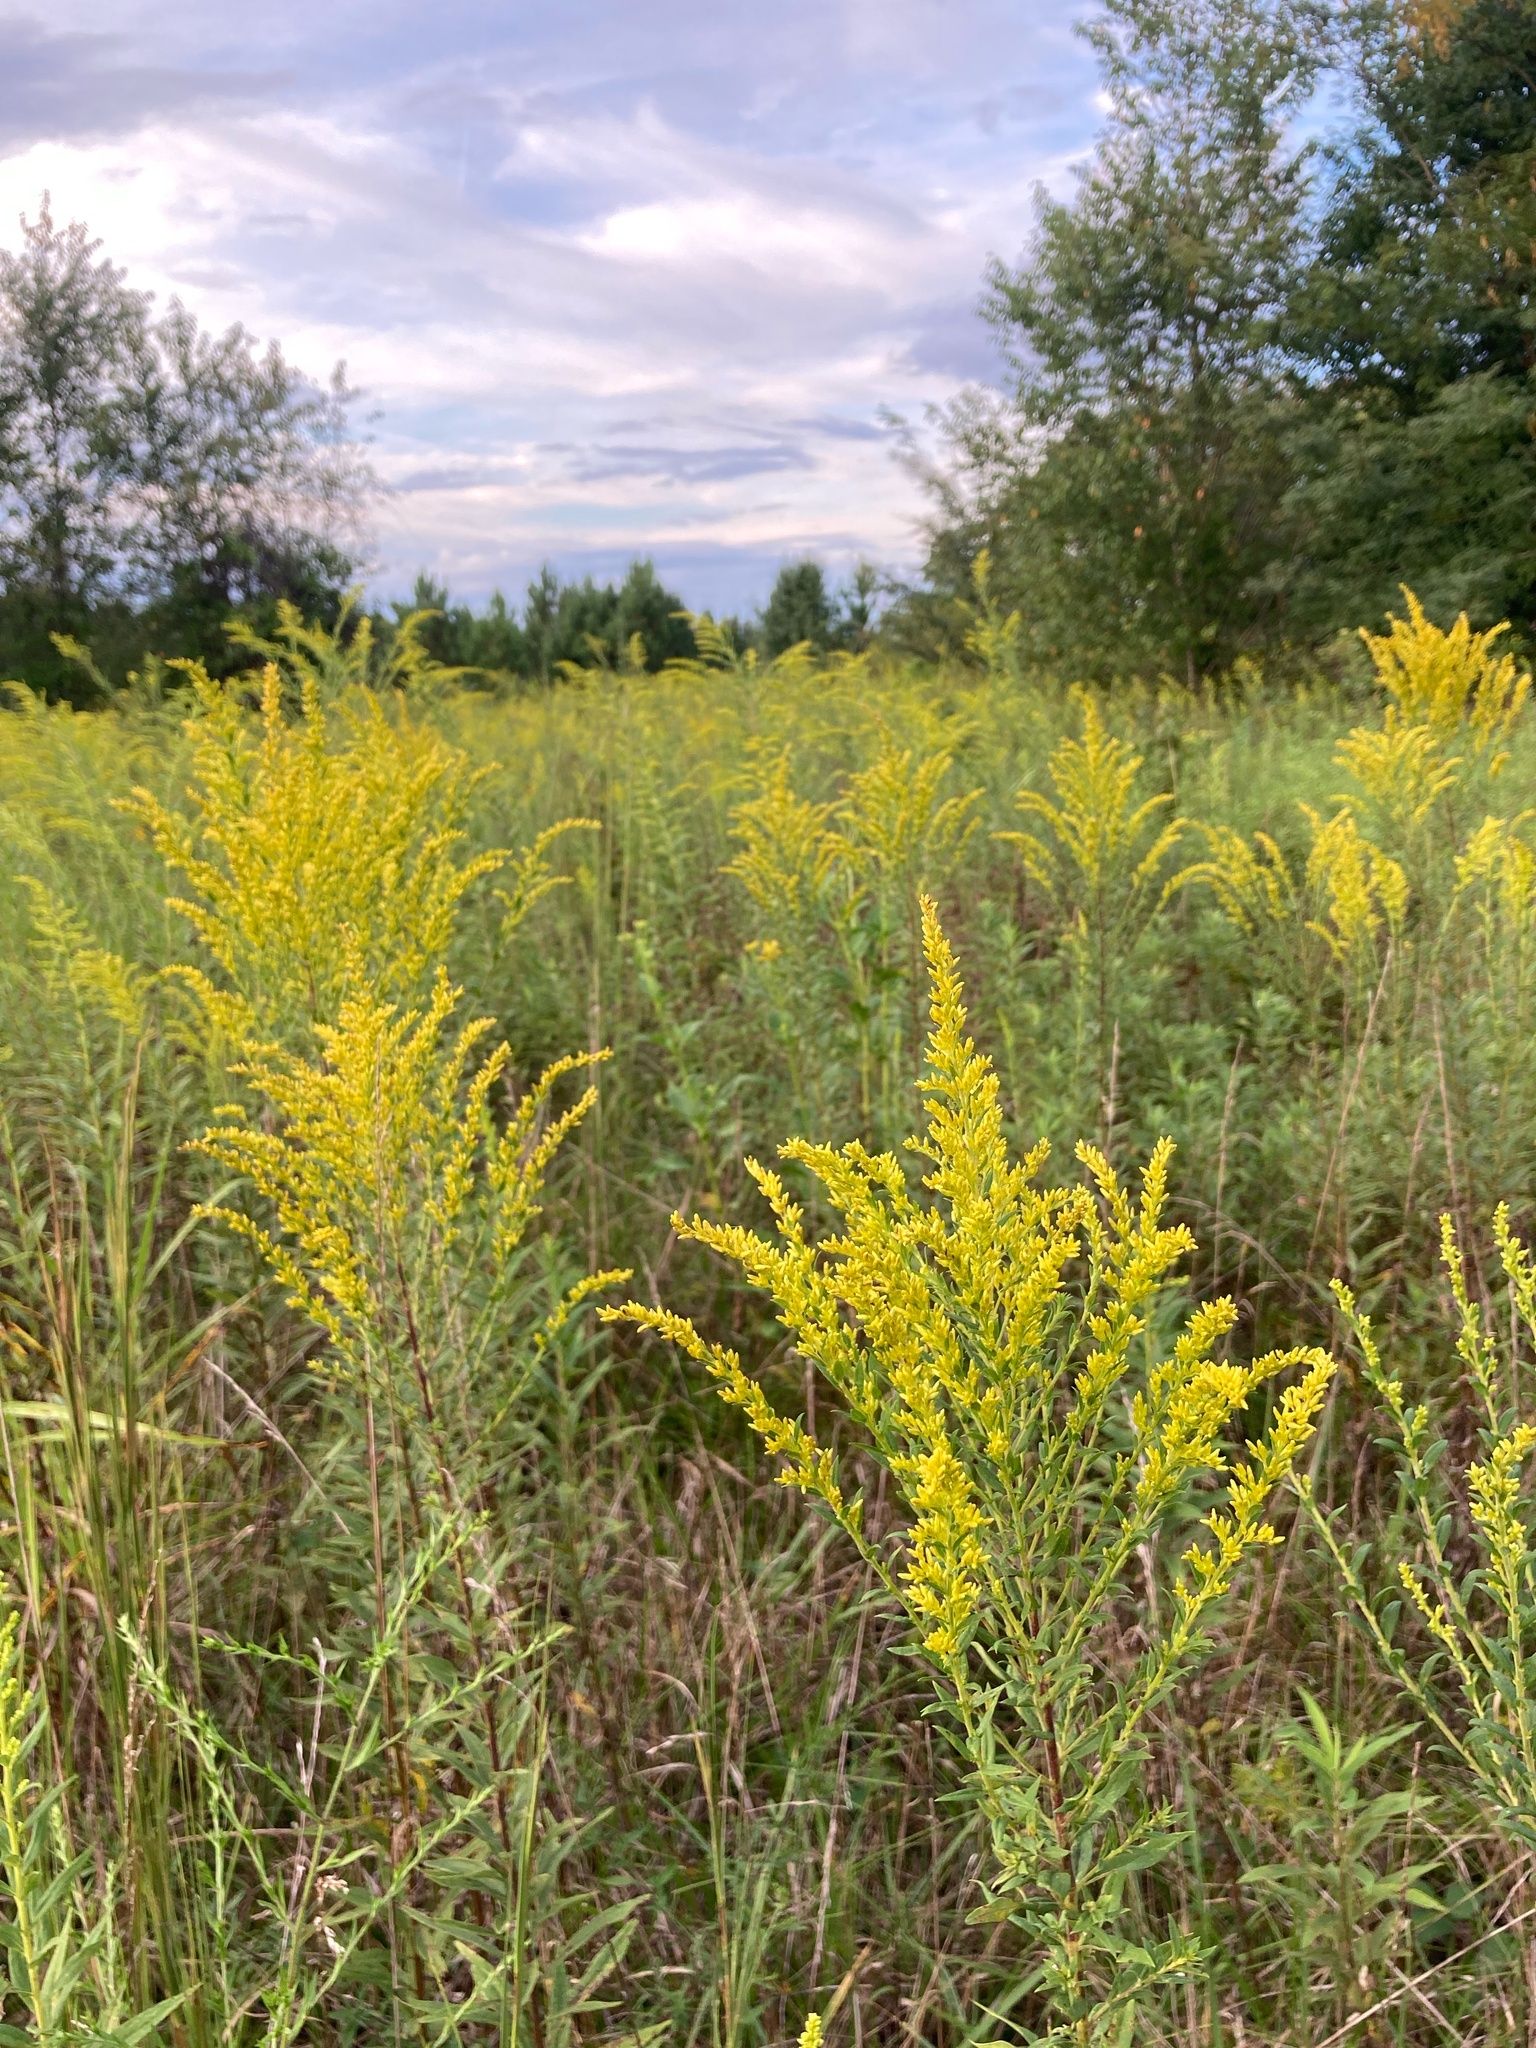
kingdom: Plantae
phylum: Tracheophyta
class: Magnoliopsida
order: Asterales
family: Asteraceae
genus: Solidago
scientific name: Solidago altissima
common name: Late goldenrod
